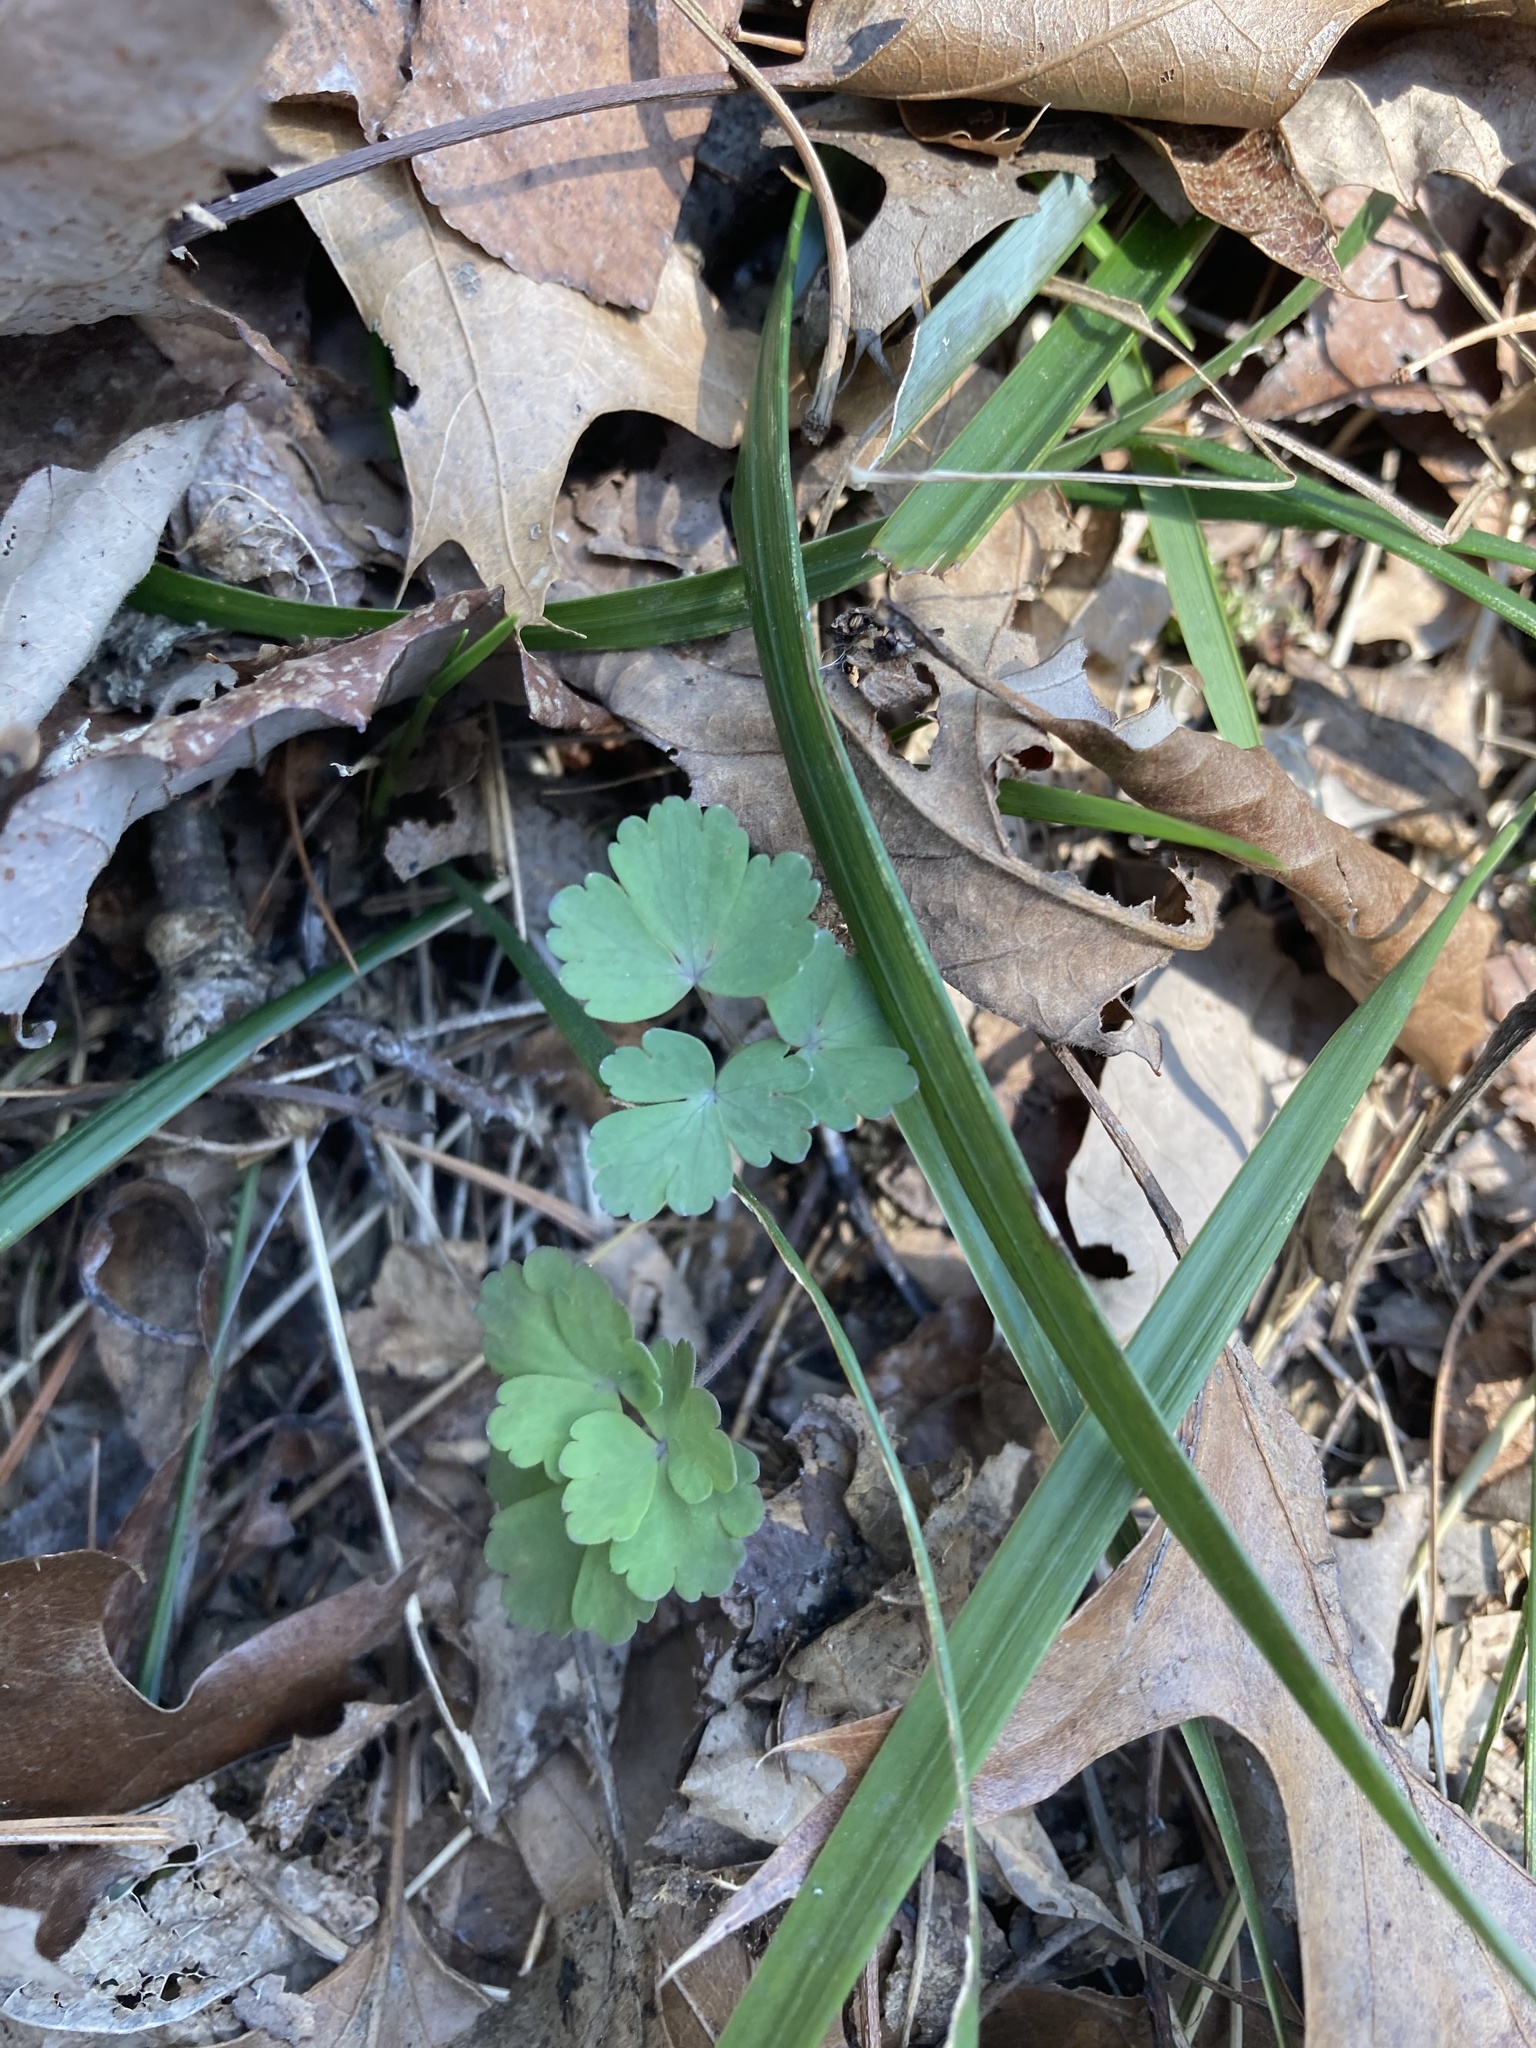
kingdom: Plantae
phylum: Tracheophyta
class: Magnoliopsida
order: Ranunculales
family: Ranunculaceae
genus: Thalictrum
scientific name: Thalictrum dioicum
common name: Early meadow-rue
